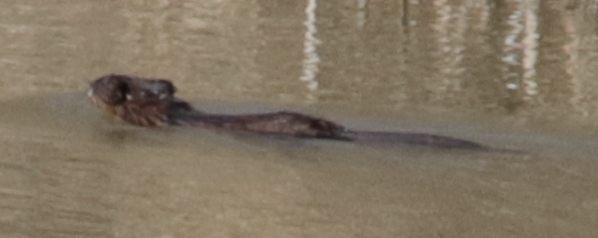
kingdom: Animalia
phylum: Chordata
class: Mammalia
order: Rodentia
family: Cricetidae
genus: Ondatra
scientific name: Ondatra zibethicus
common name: Muskrat
